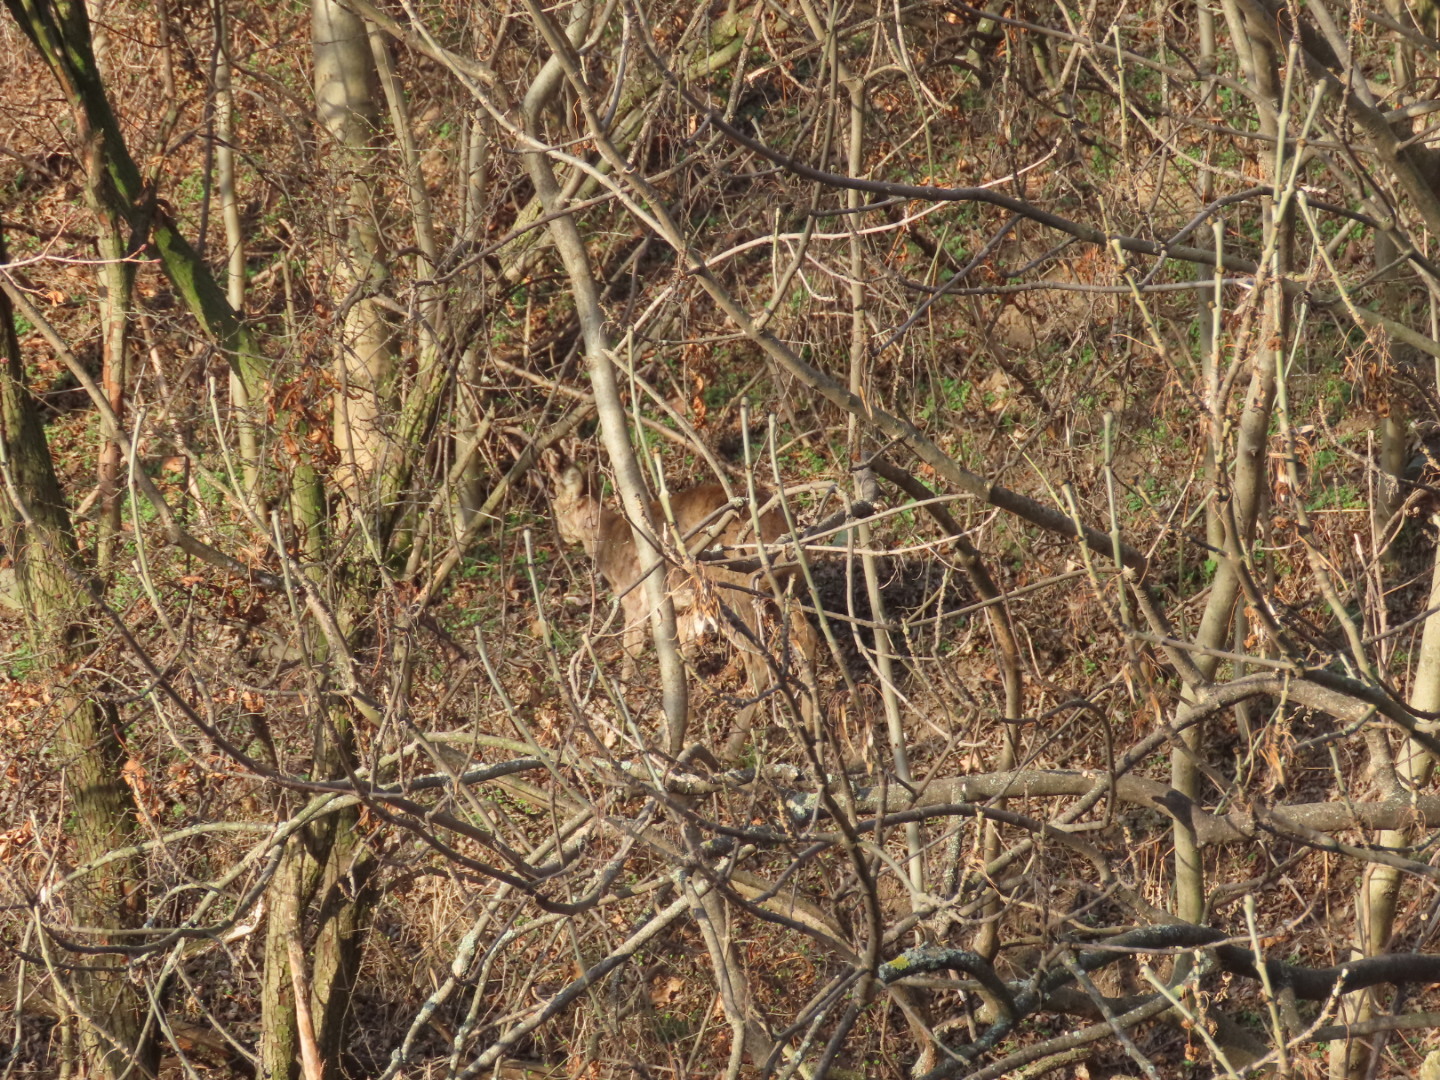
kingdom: Animalia
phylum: Chordata
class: Mammalia
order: Artiodactyla
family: Cervidae
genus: Capreolus
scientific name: Capreolus capreolus
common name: Western roe deer
